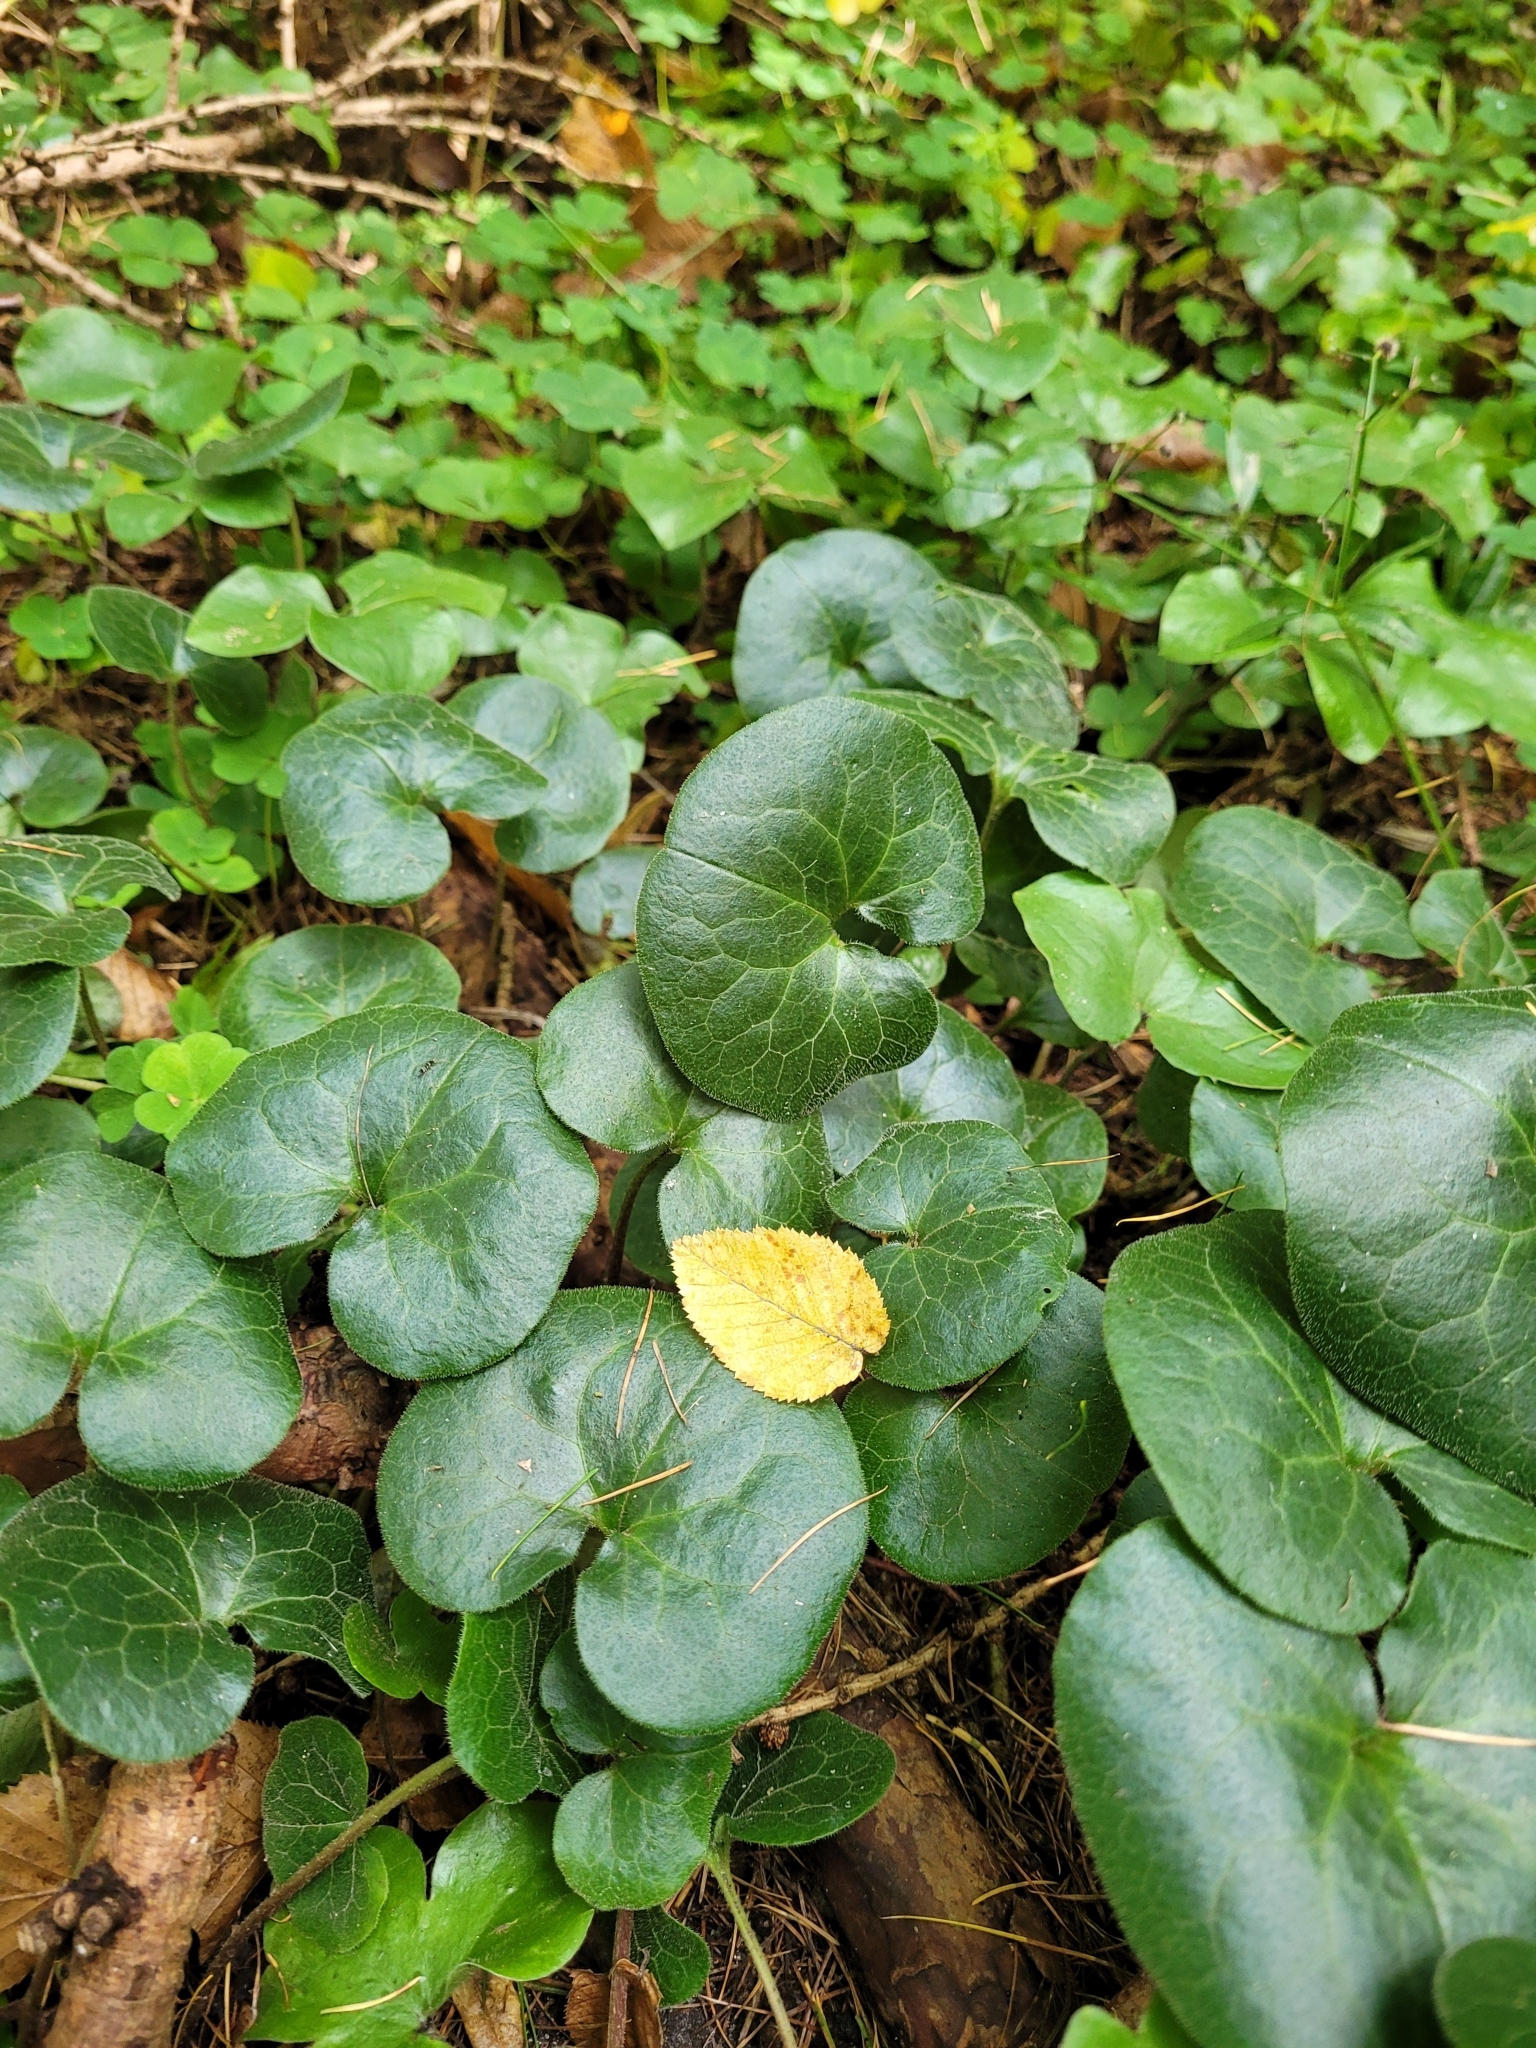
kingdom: Plantae
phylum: Tracheophyta
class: Magnoliopsida
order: Piperales
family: Aristolochiaceae
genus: Asarum
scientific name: Asarum europaeum
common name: Asarabacca
